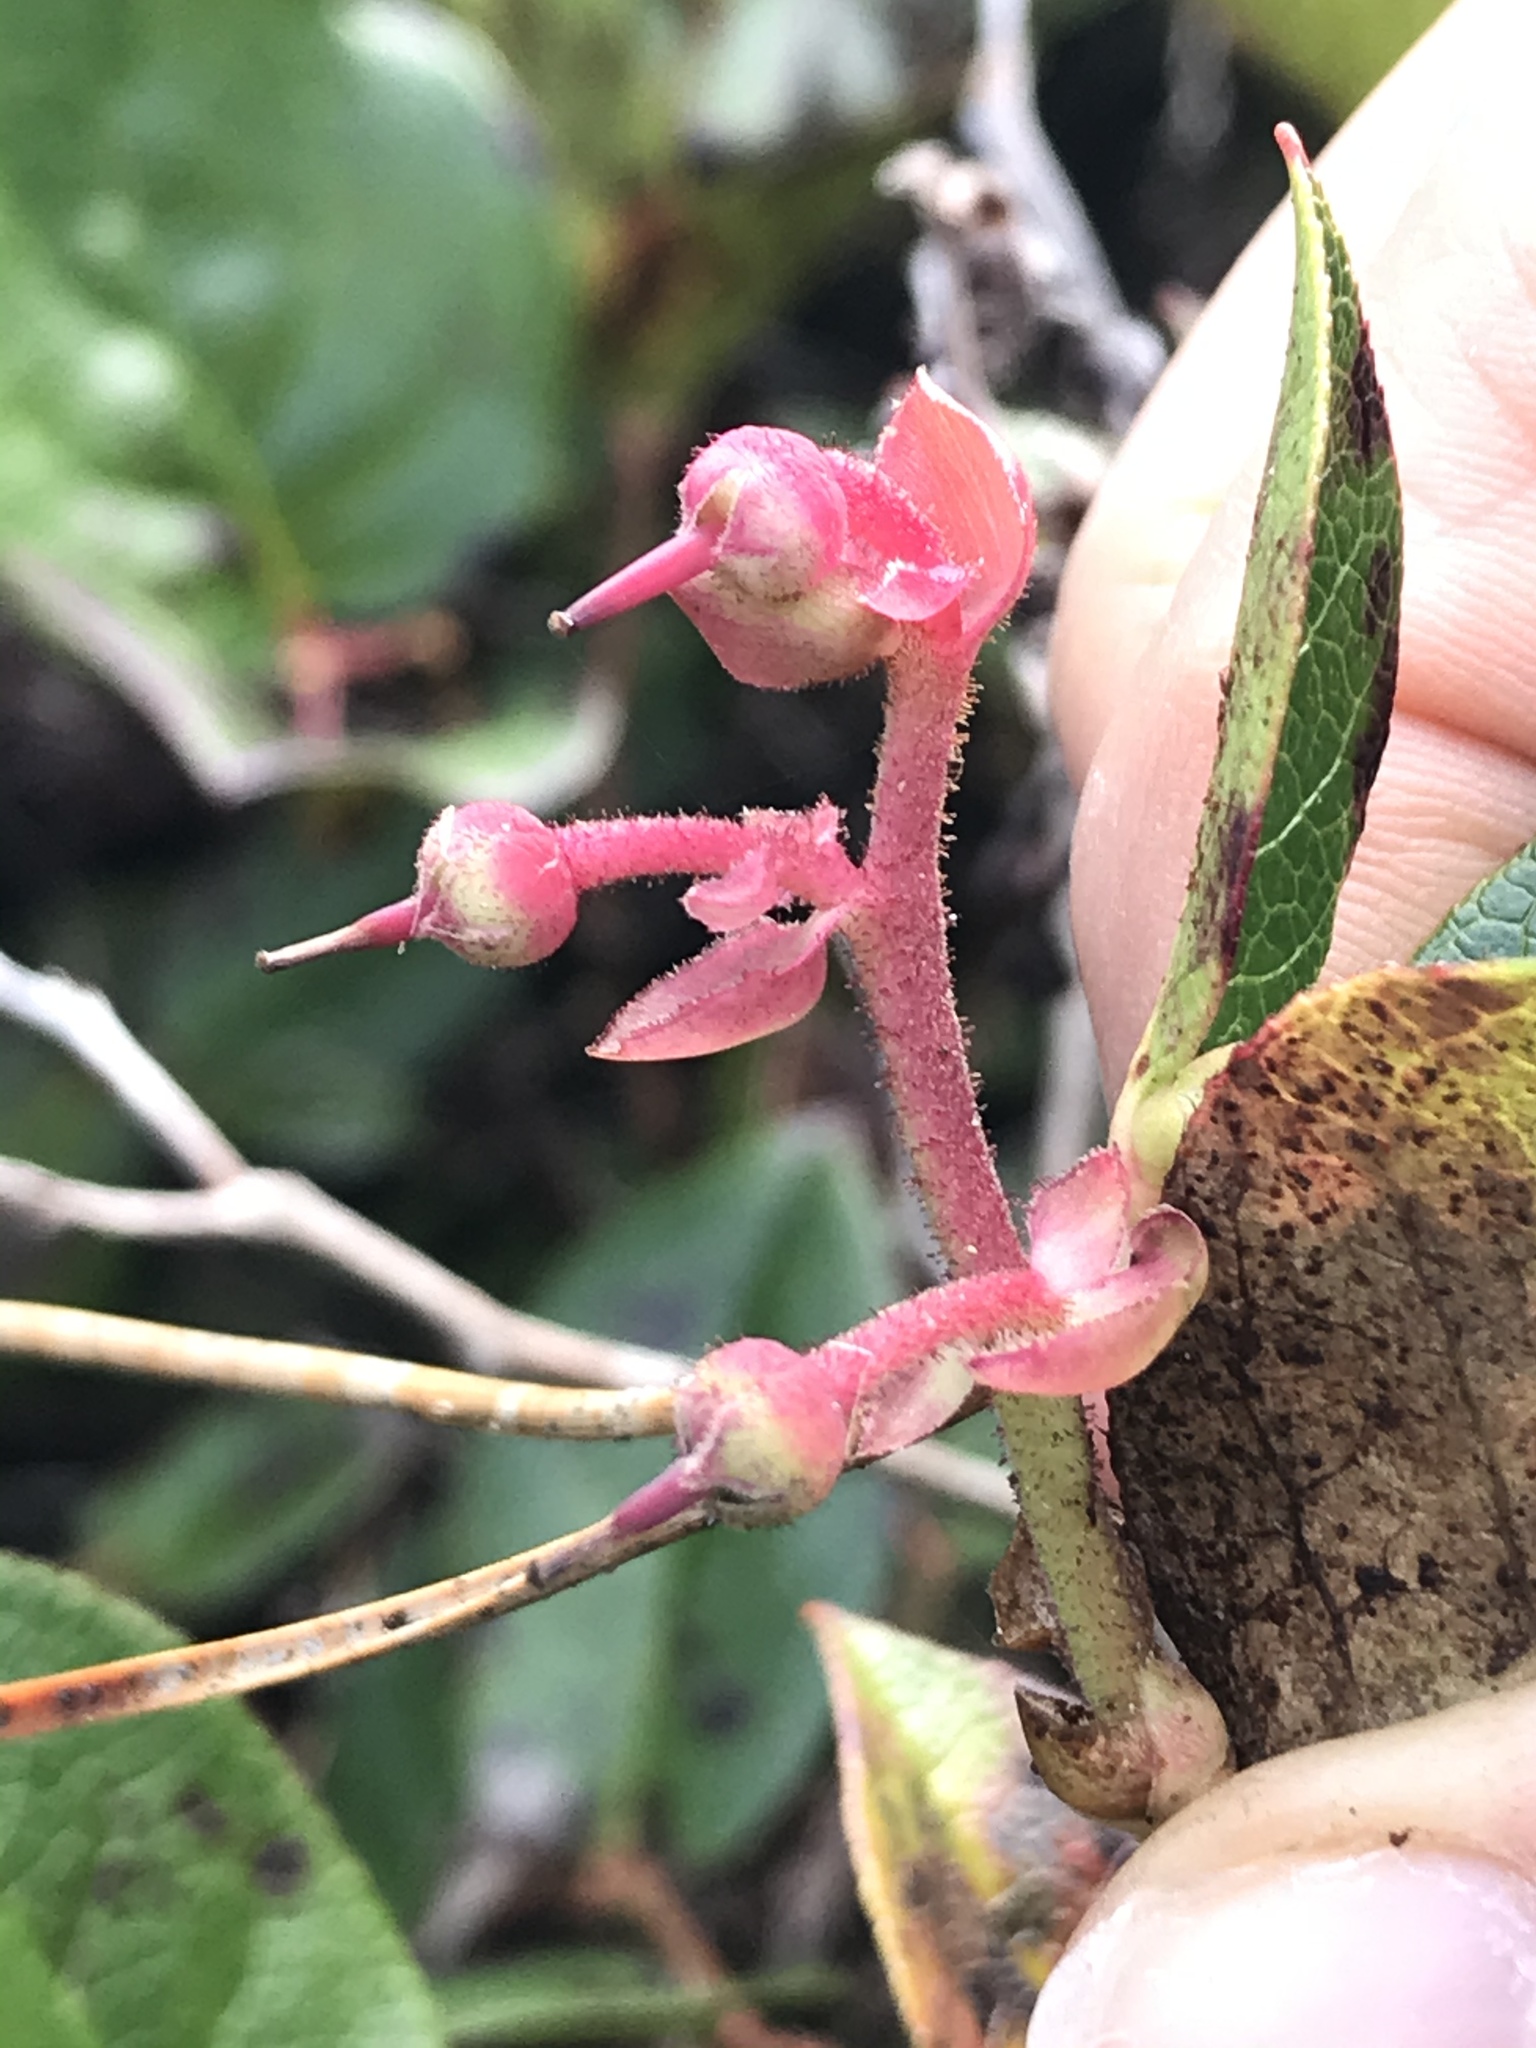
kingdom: Plantae
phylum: Tracheophyta
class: Magnoliopsida
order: Ericales
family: Ericaceae
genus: Gaultheria
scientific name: Gaultheria shallon
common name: Shallon
